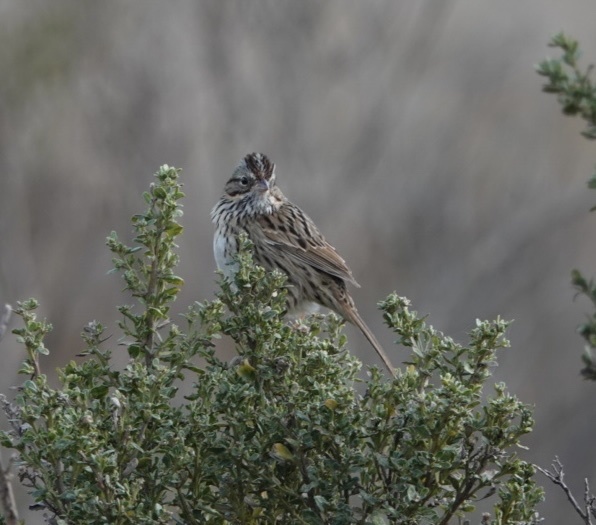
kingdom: Animalia
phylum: Chordata
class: Aves
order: Passeriformes
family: Passerellidae
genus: Melospiza
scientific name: Melospiza lincolnii
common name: Lincoln's sparrow
